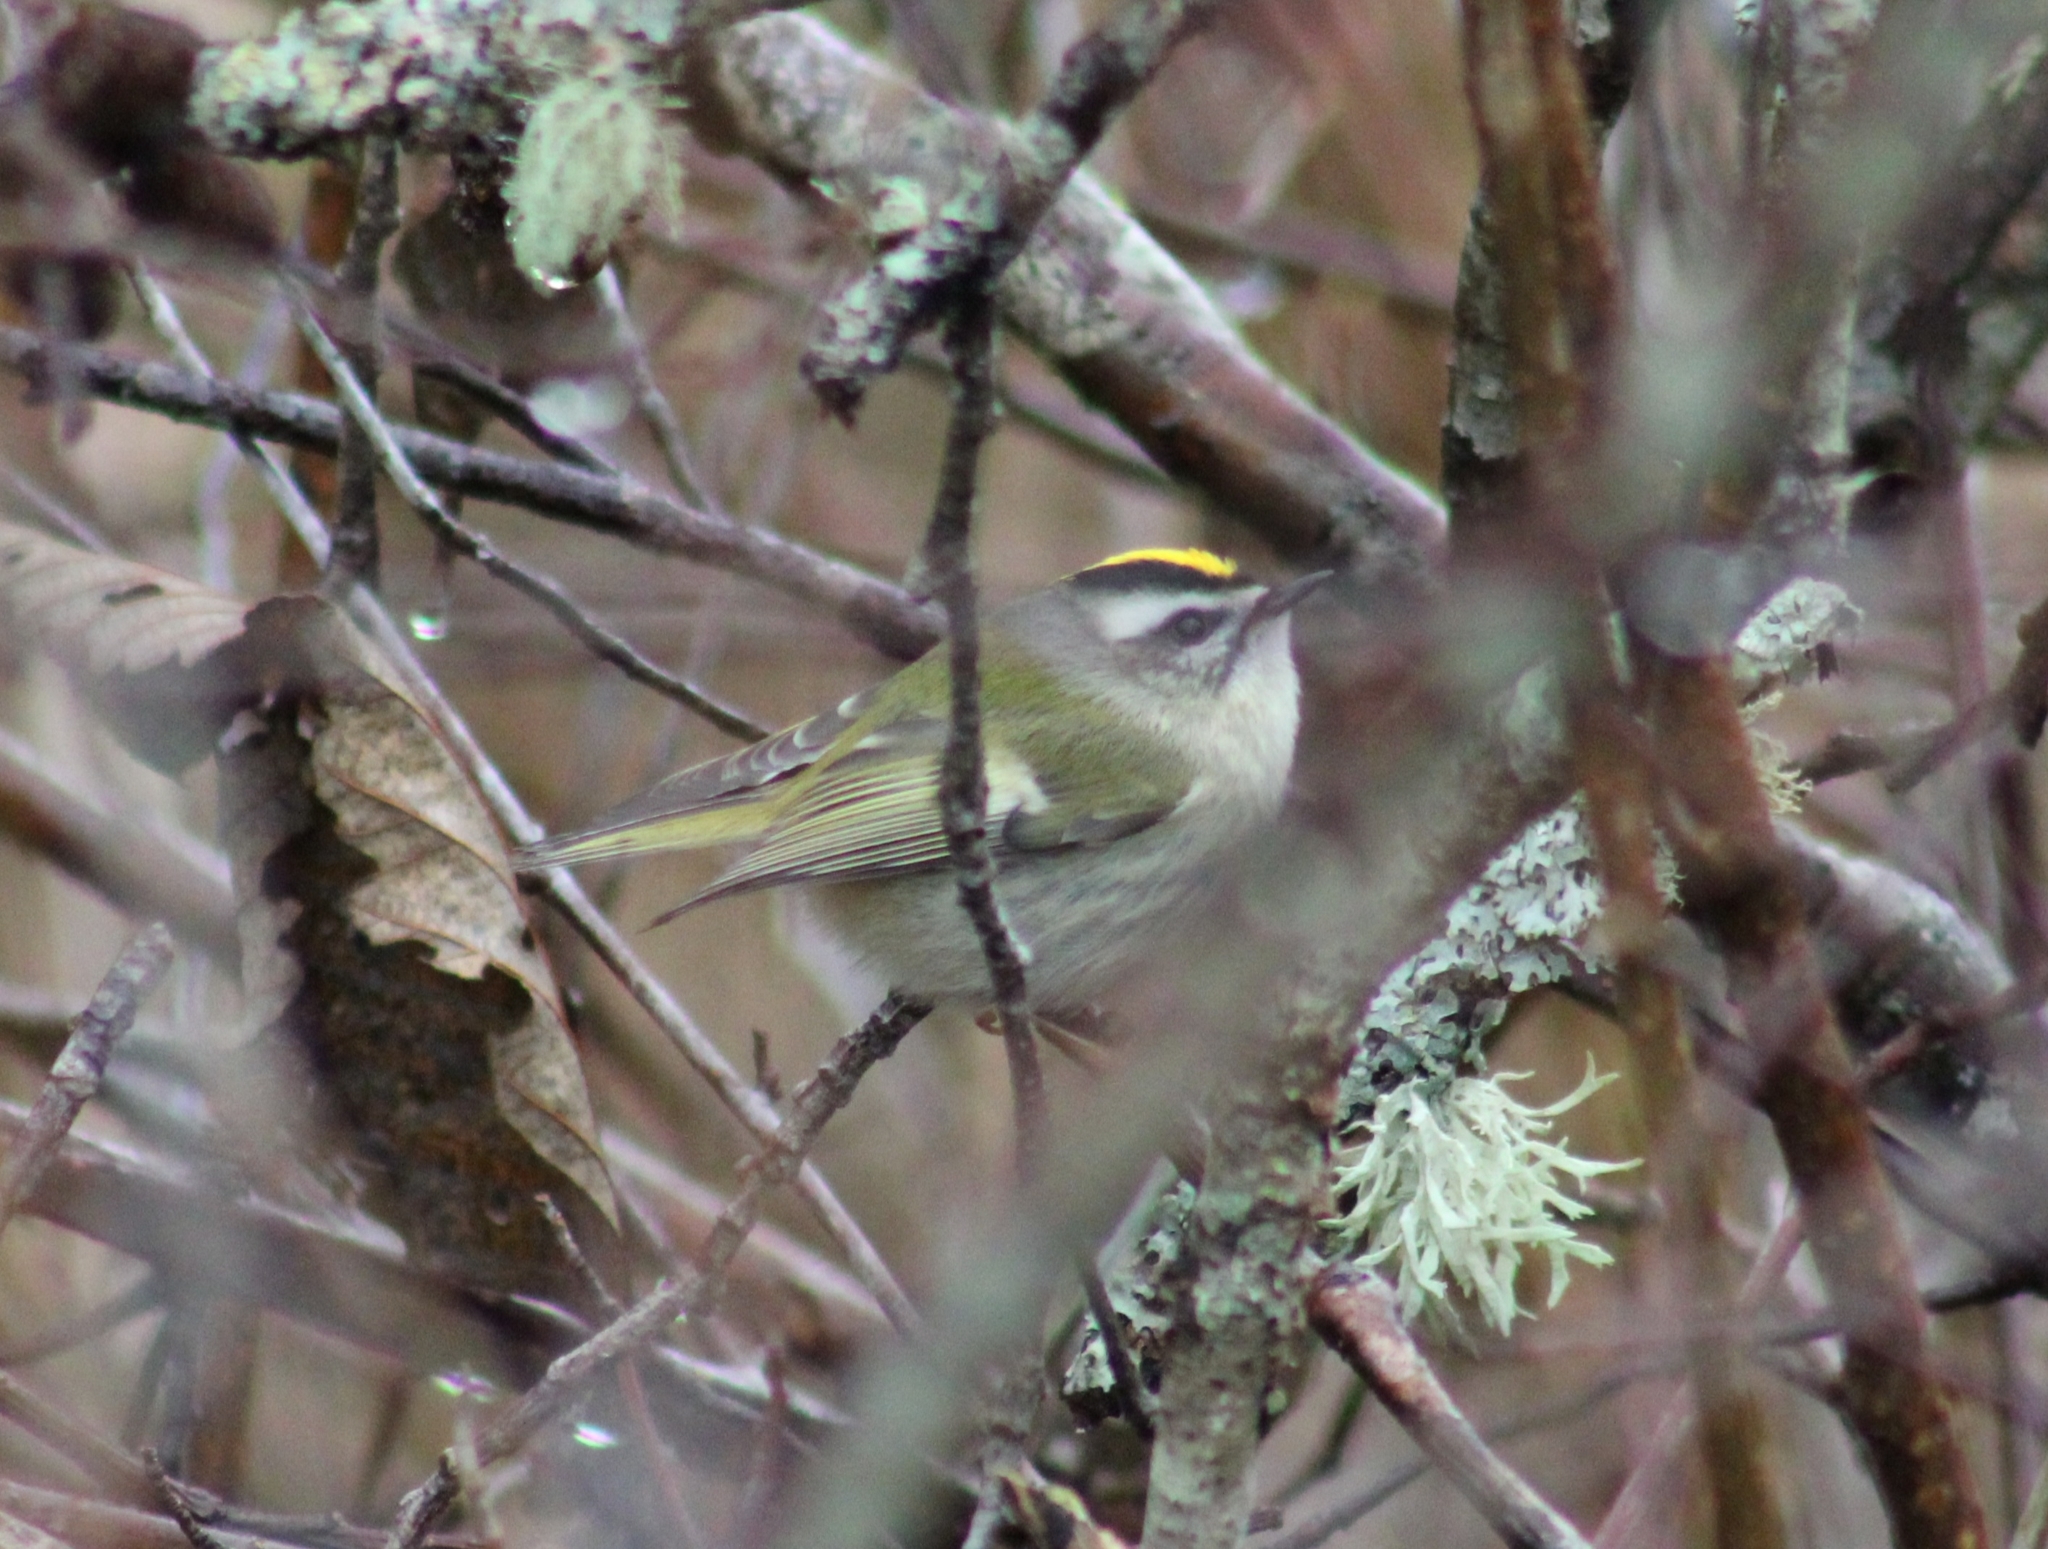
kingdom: Animalia
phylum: Chordata
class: Aves
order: Passeriformes
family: Regulidae
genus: Regulus
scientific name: Regulus satrapa
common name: Golden-crowned kinglet
